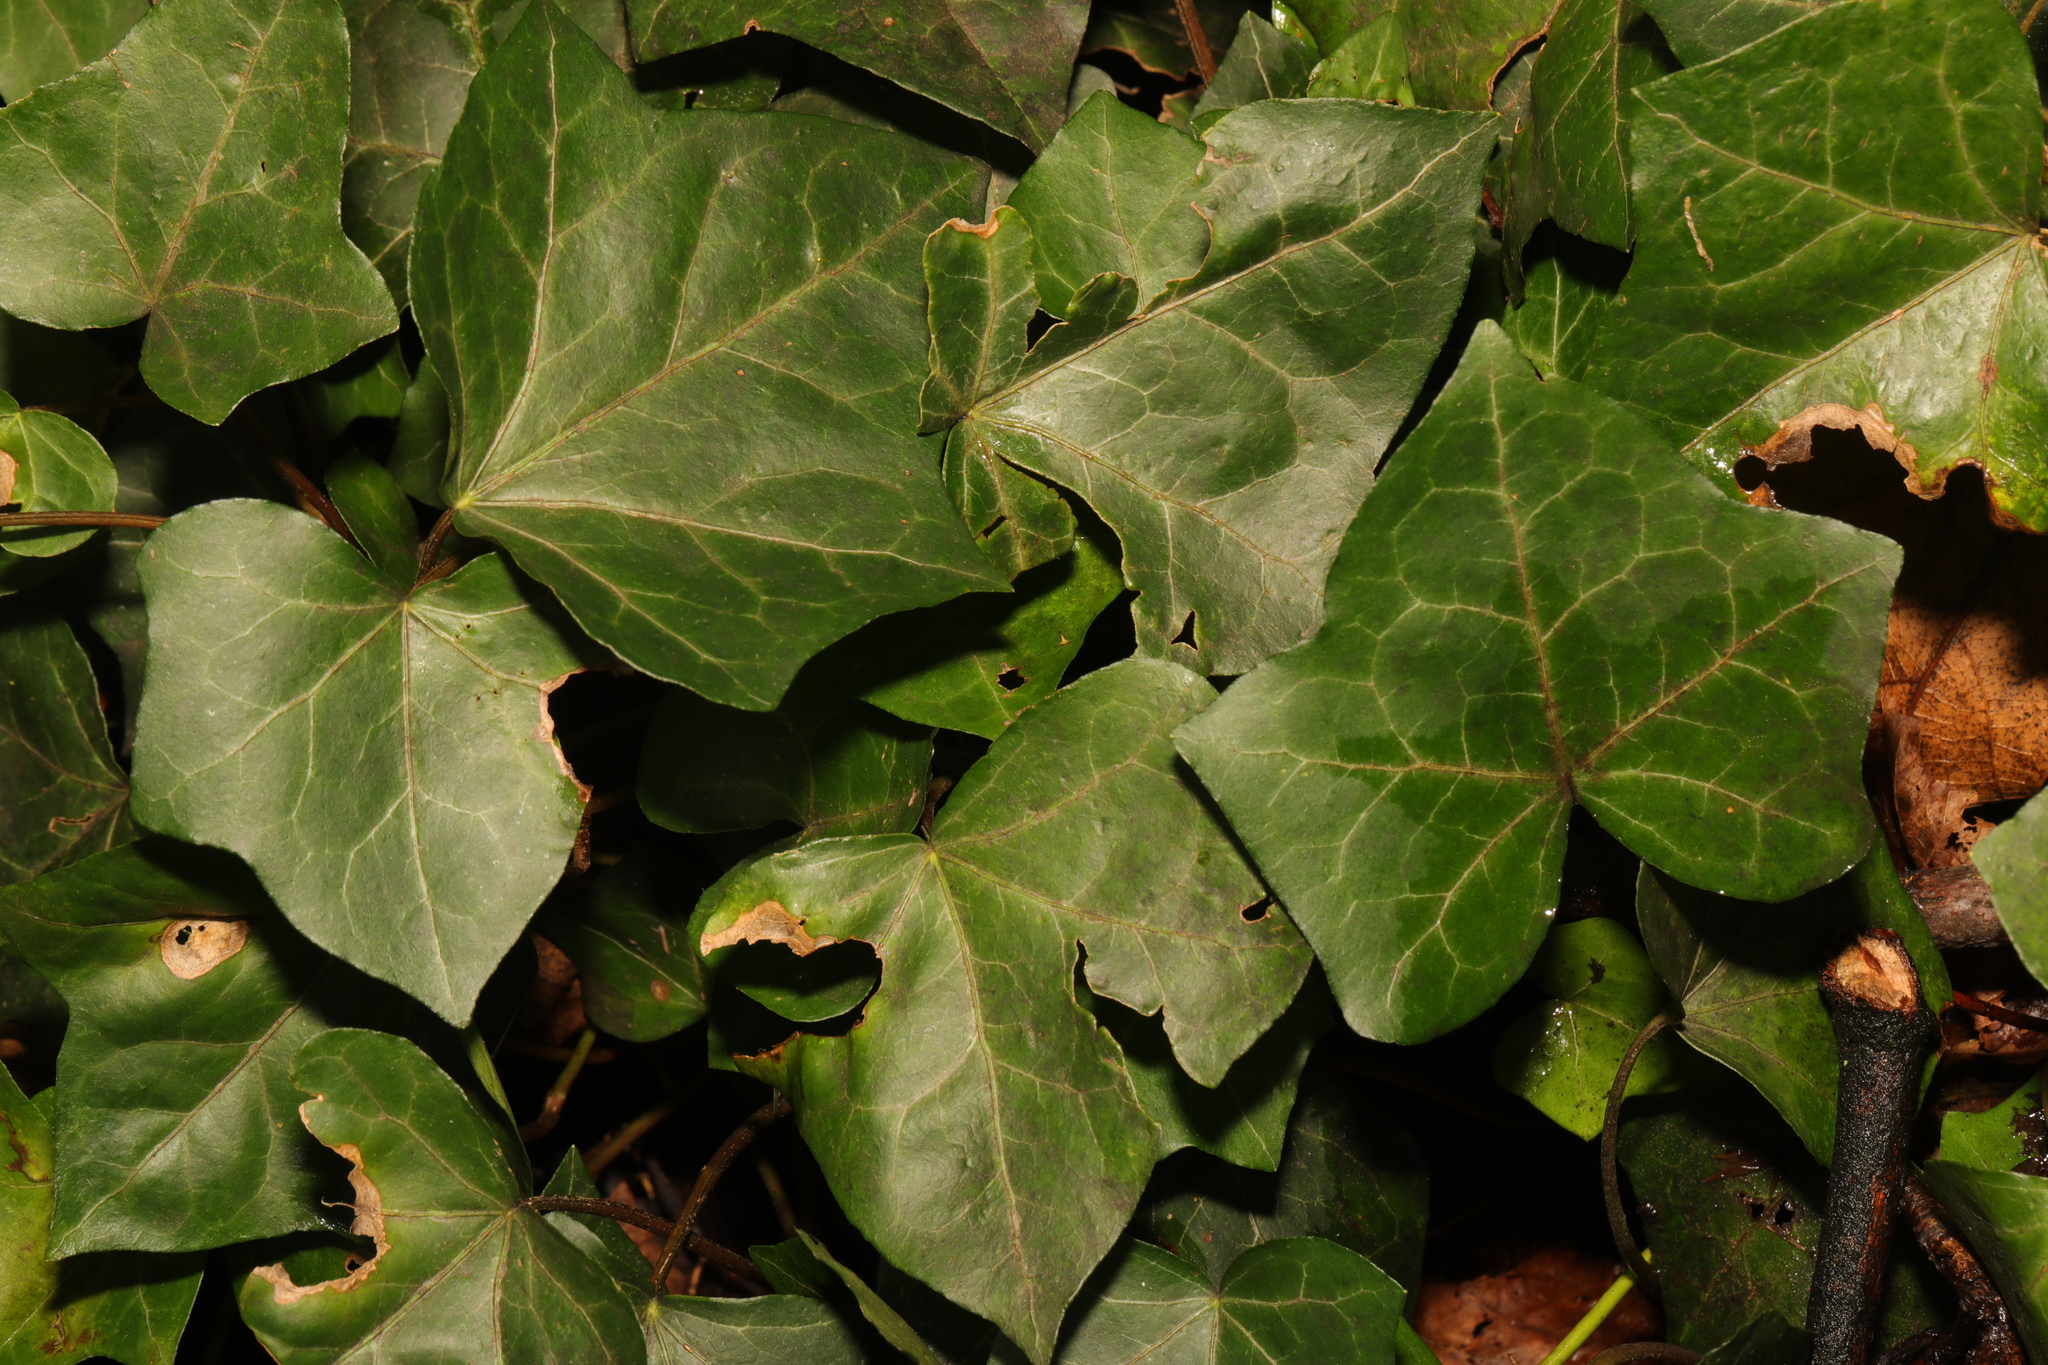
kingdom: Plantae
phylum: Tracheophyta
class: Magnoliopsida
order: Apiales
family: Araliaceae
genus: Hedera
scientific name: Hedera helix
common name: Ivy
